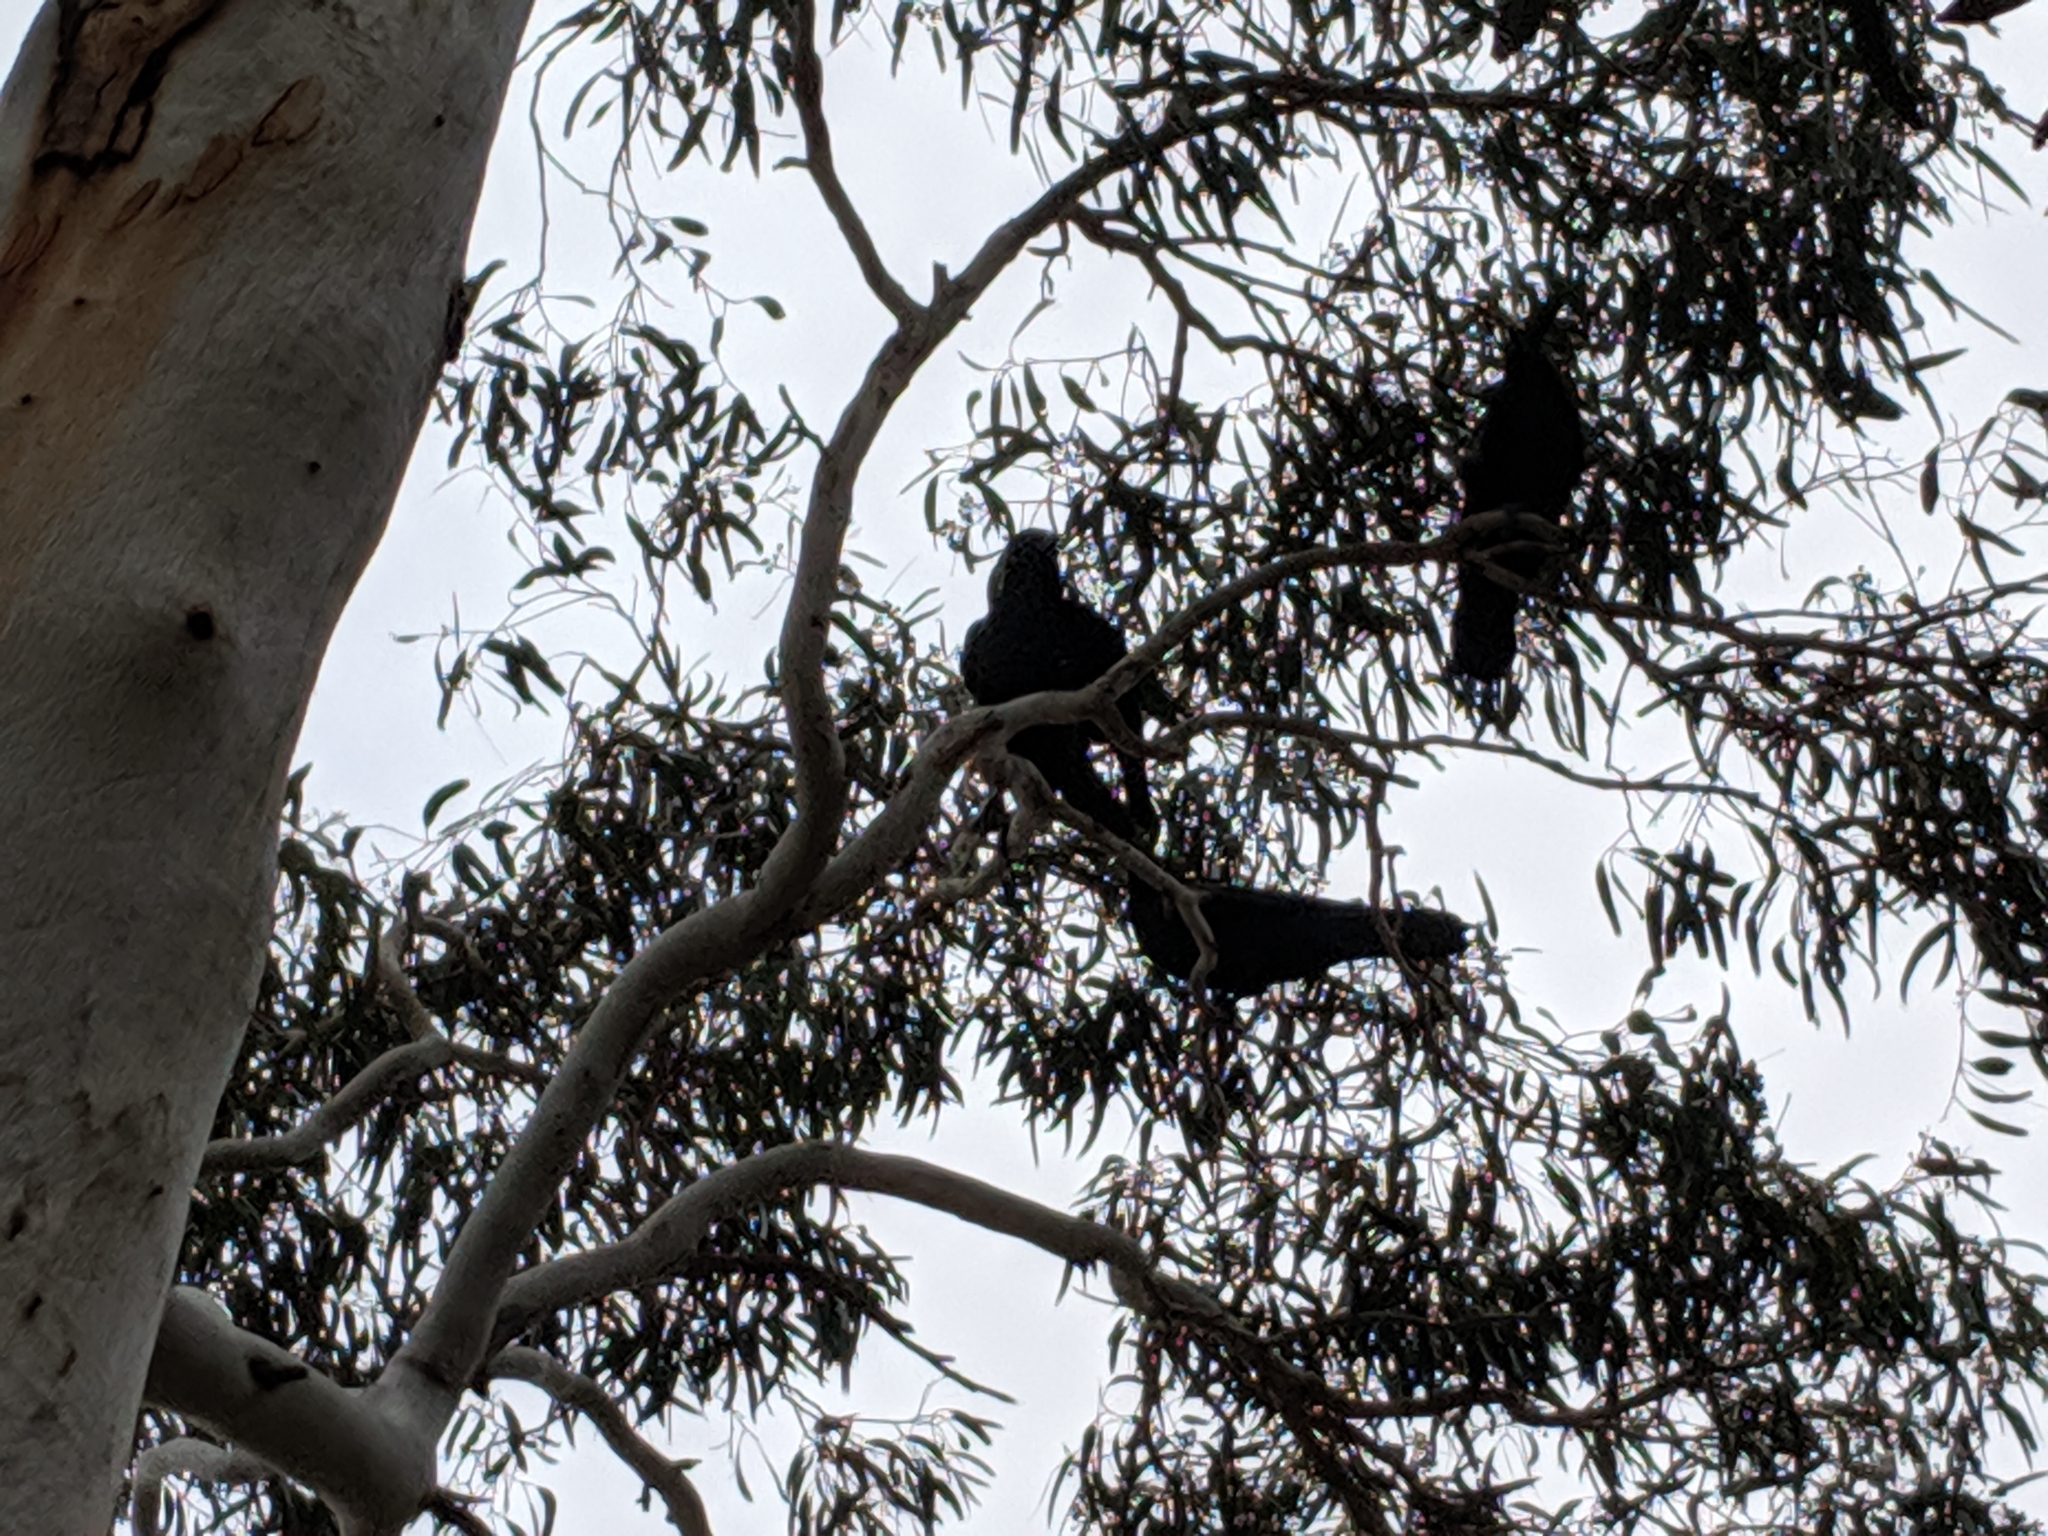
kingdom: Animalia
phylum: Chordata
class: Aves
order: Passeriformes
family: Corvidae
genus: Corvus
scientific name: Corvus mellori
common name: Little raven
